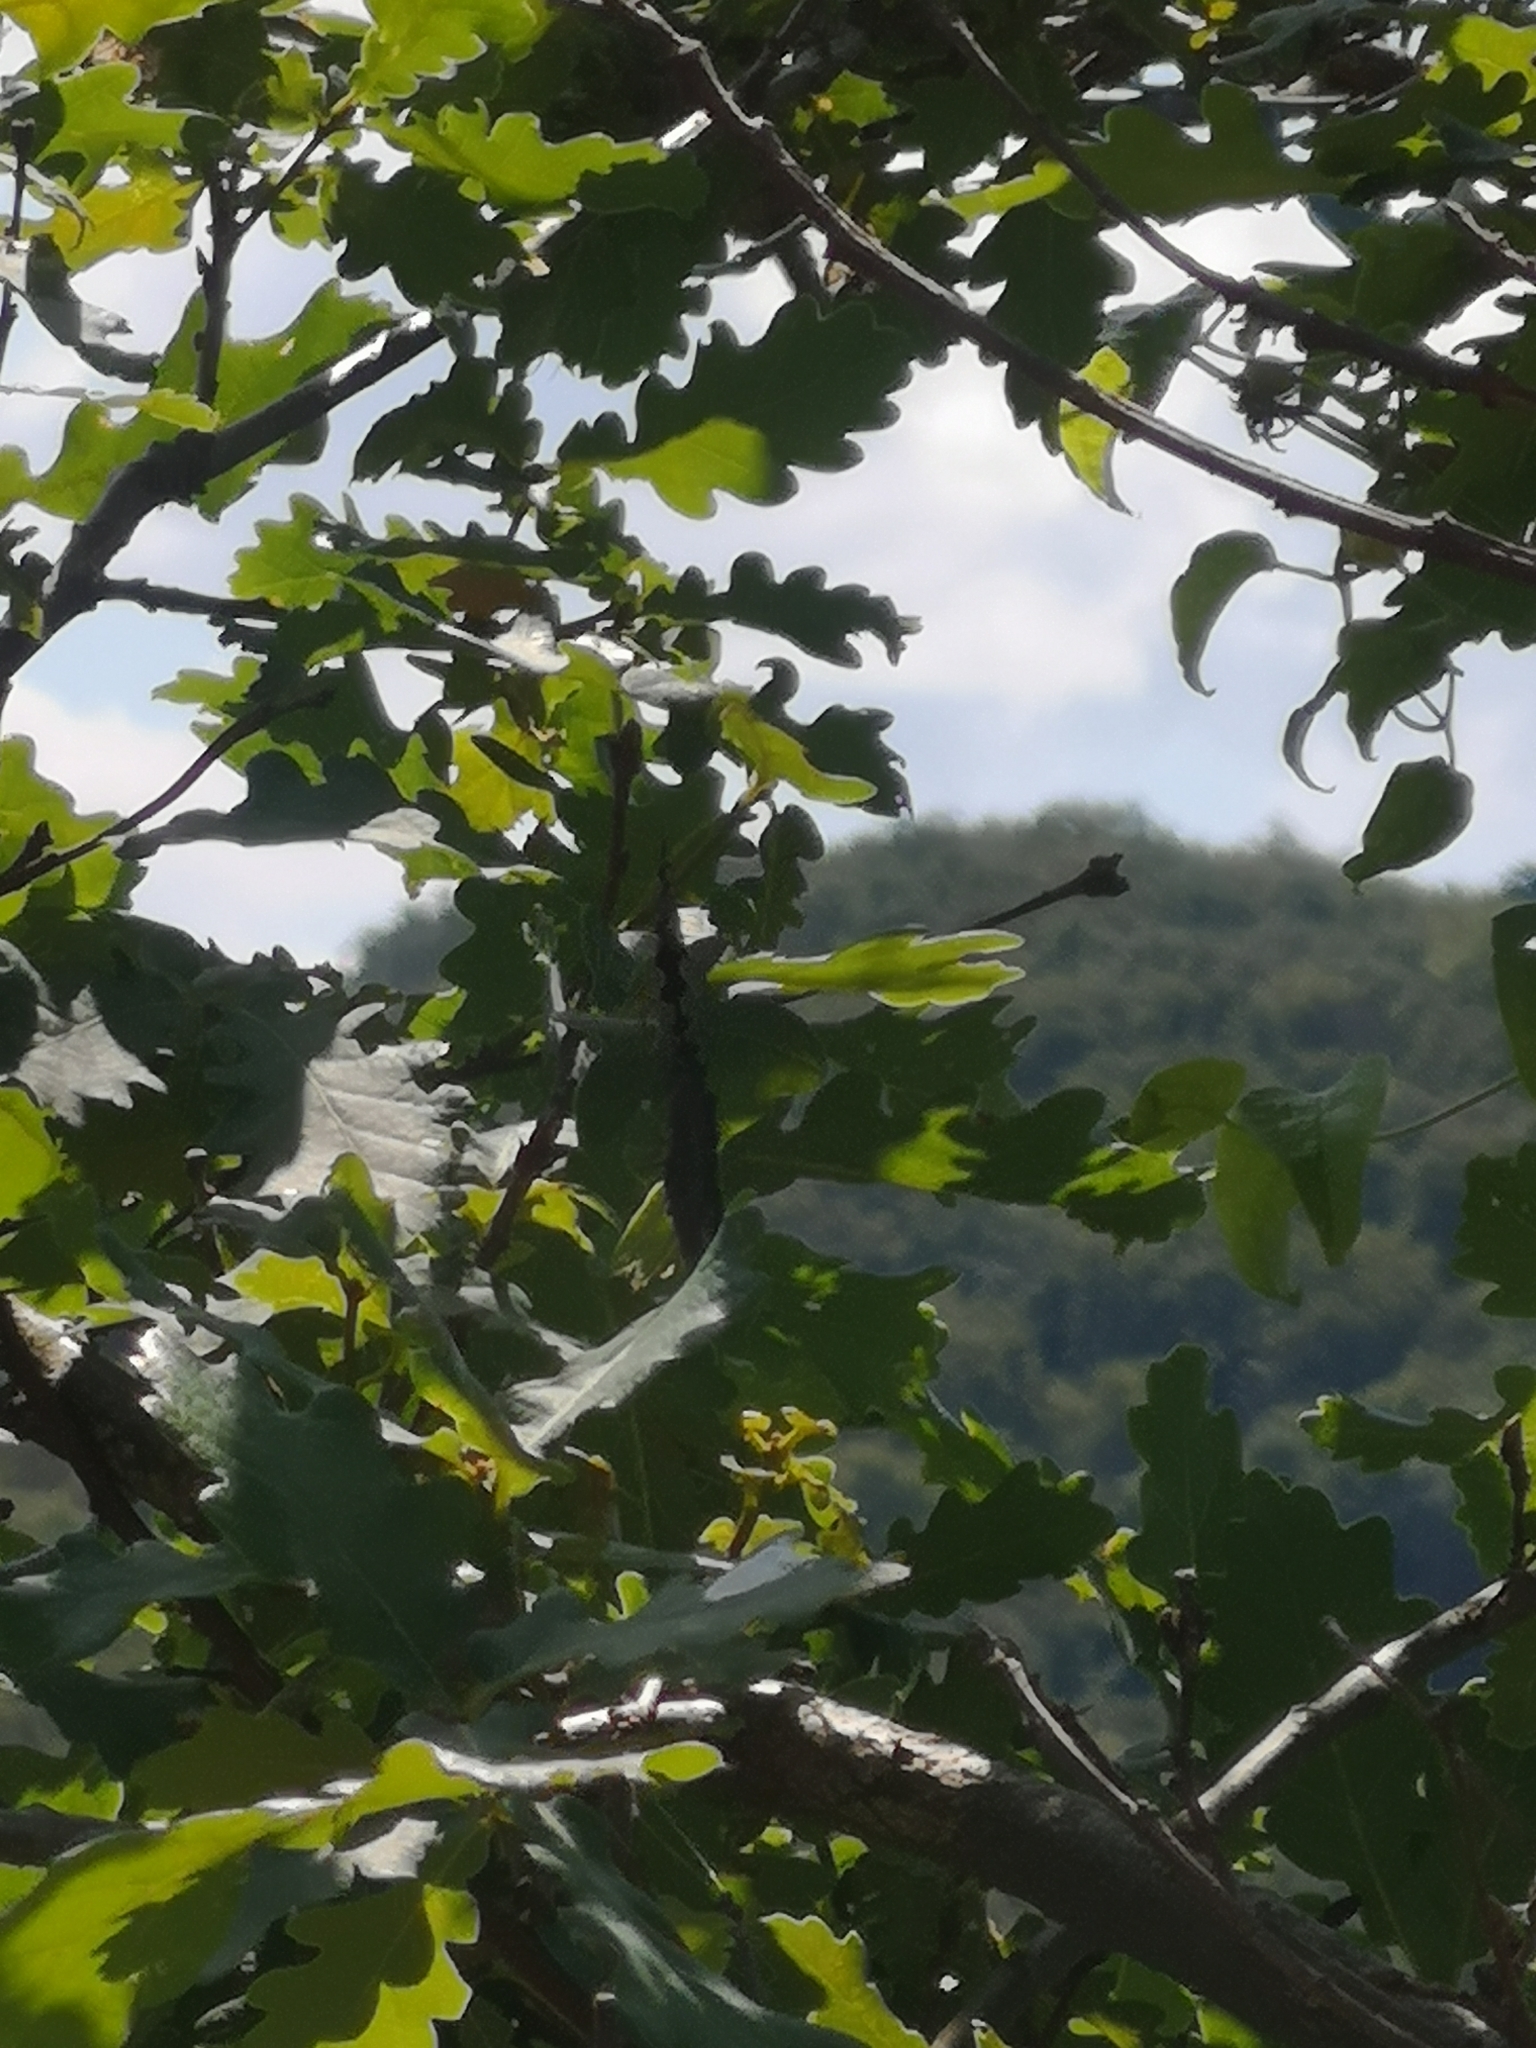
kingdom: Animalia
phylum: Arthropoda
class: Insecta
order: Lepidoptera
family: Nymphalidae
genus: Minois
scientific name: Minois dryas
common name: Dryad
